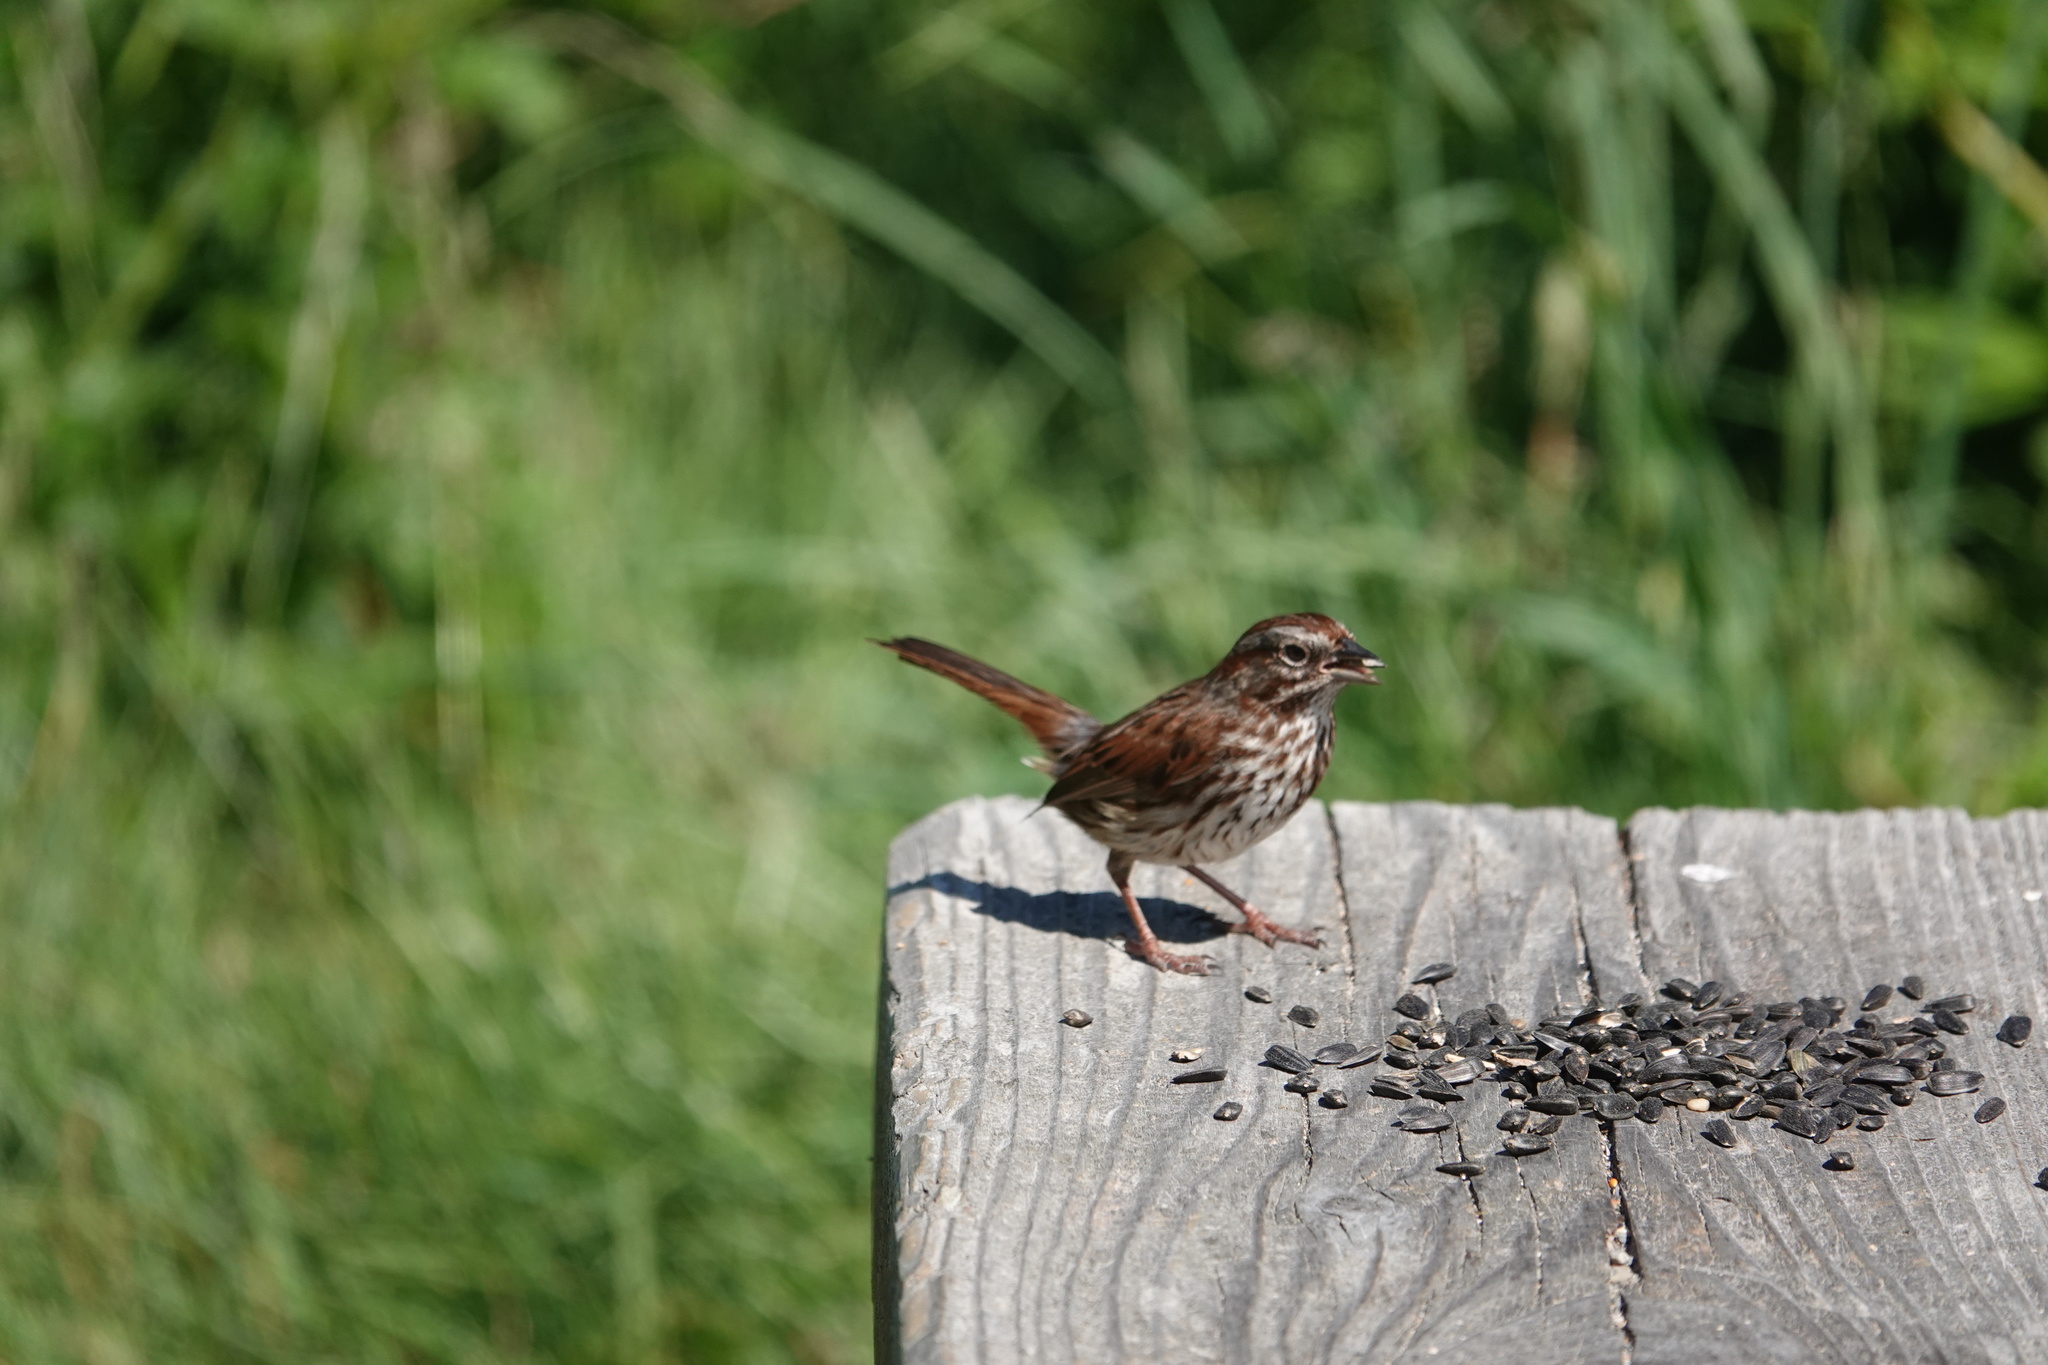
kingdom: Animalia
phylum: Chordata
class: Aves
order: Passeriformes
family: Passerellidae
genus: Melospiza
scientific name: Melospiza melodia
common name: Song sparrow
